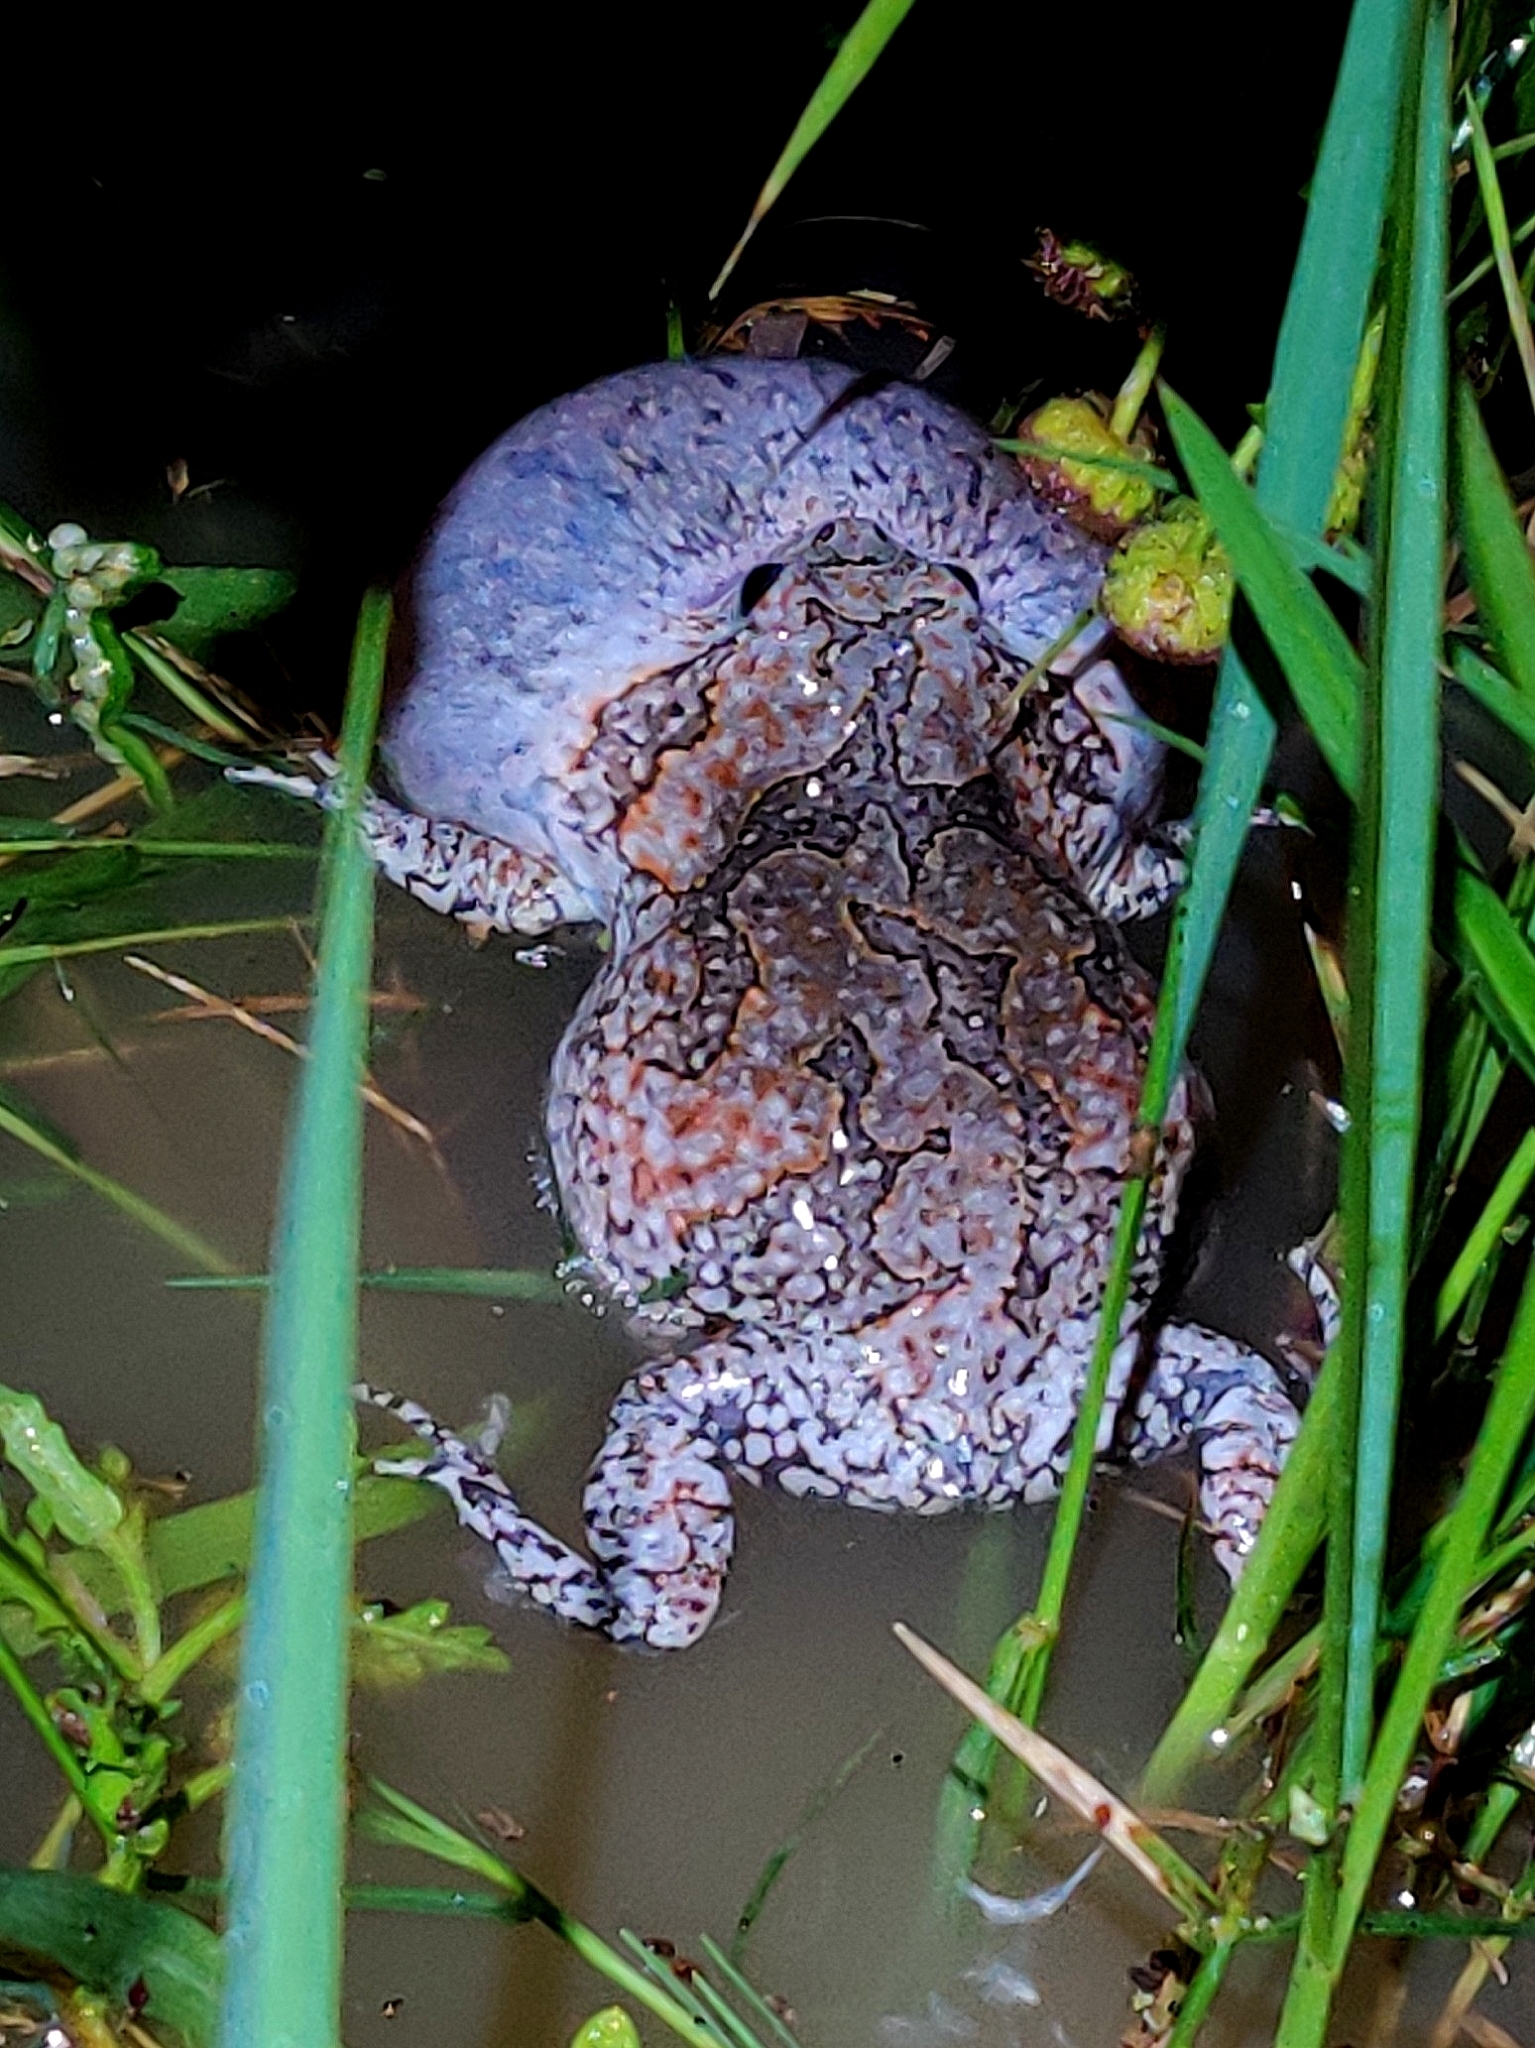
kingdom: Animalia
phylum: Chordata
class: Amphibia
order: Anura
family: Microhylidae
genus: Uperodon
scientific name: Uperodon taprobanicus
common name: Ceylon kaloula
